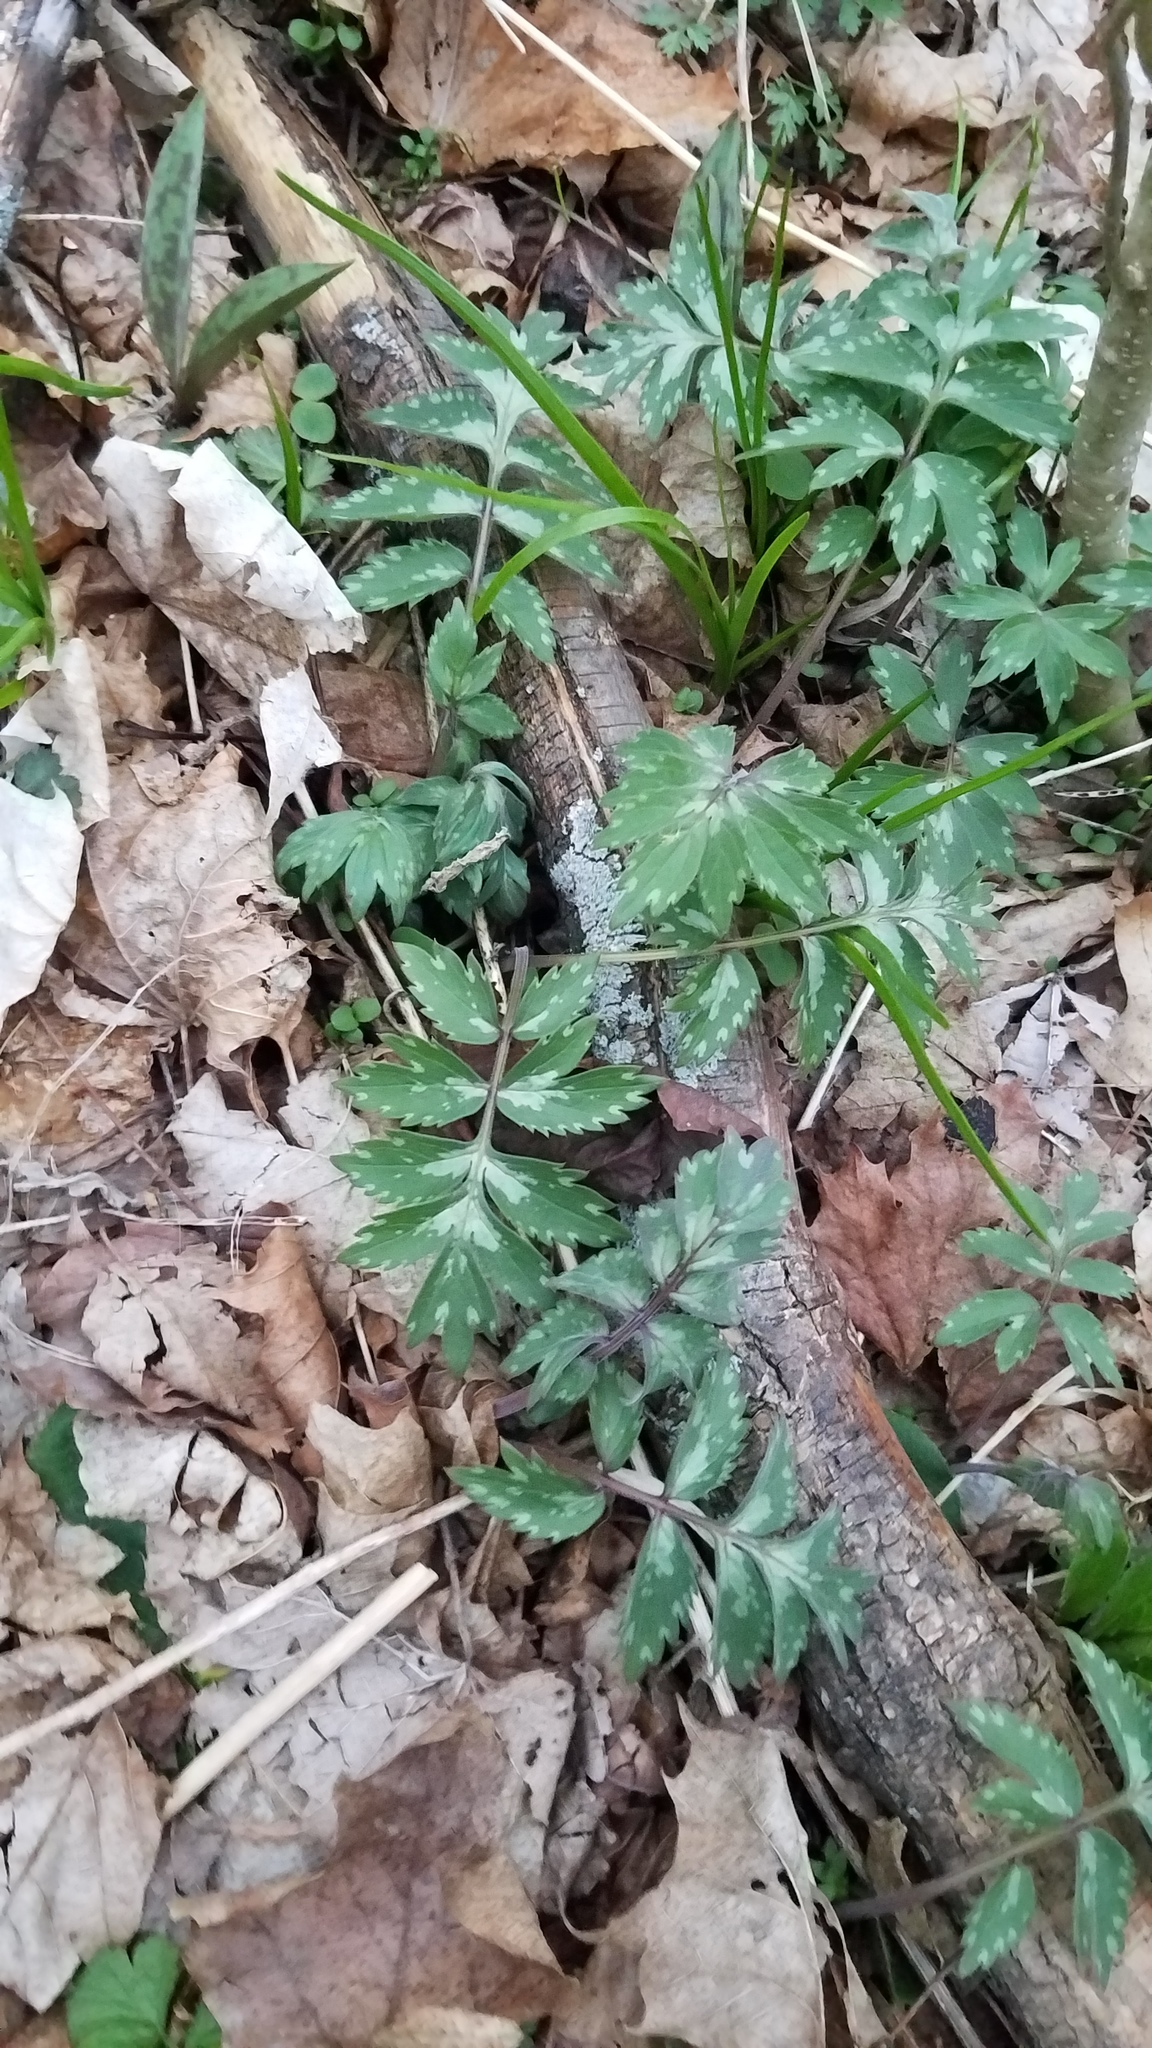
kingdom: Plantae
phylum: Tracheophyta
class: Magnoliopsida
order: Boraginales
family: Hydrophyllaceae
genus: Hydrophyllum
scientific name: Hydrophyllum virginianum
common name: Virginia waterleaf
